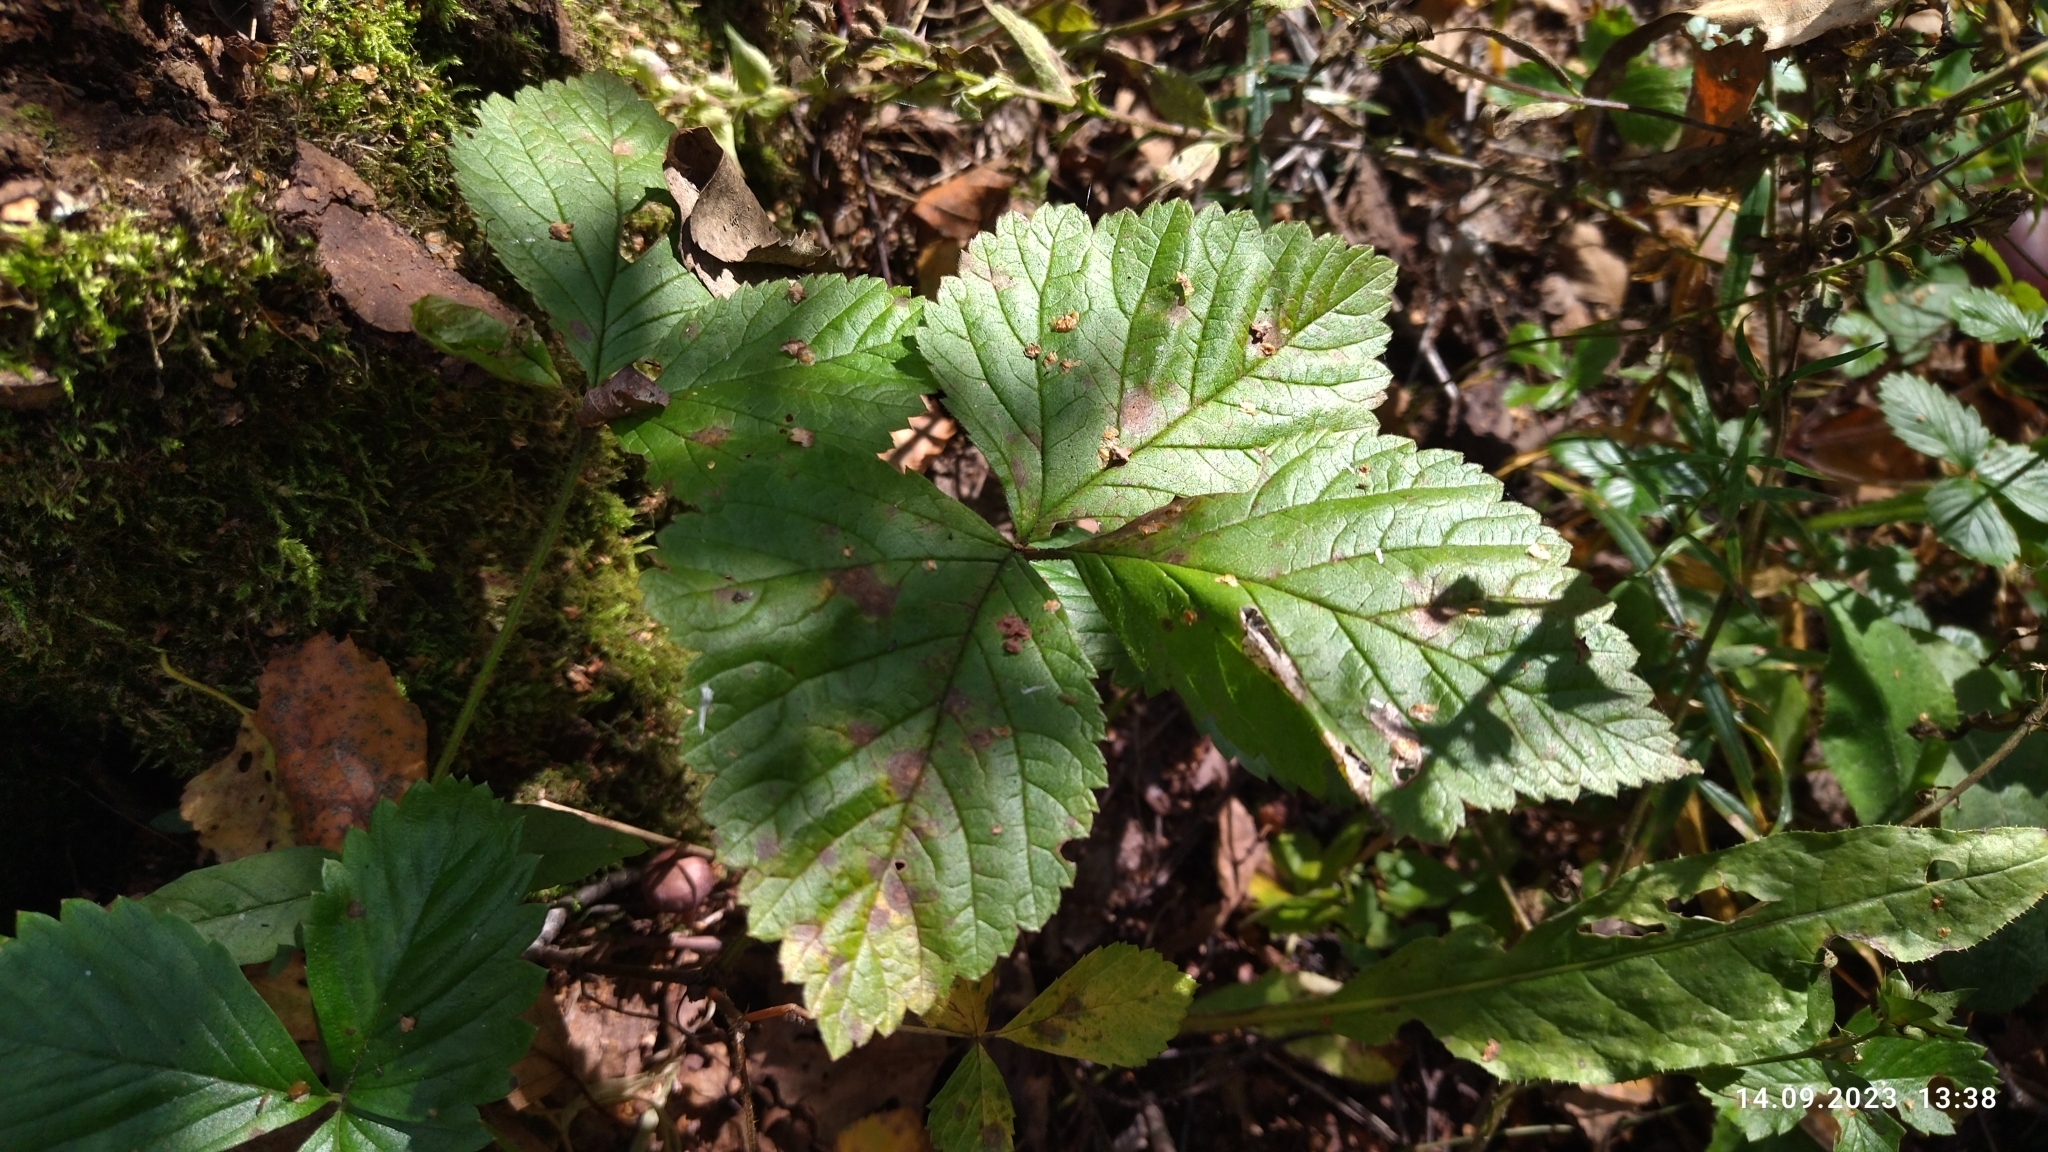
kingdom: Plantae
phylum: Tracheophyta
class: Magnoliopsida
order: Rosales
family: Rosaceae
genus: Rubus
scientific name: Rubus saxatilis
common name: Stone bramble
